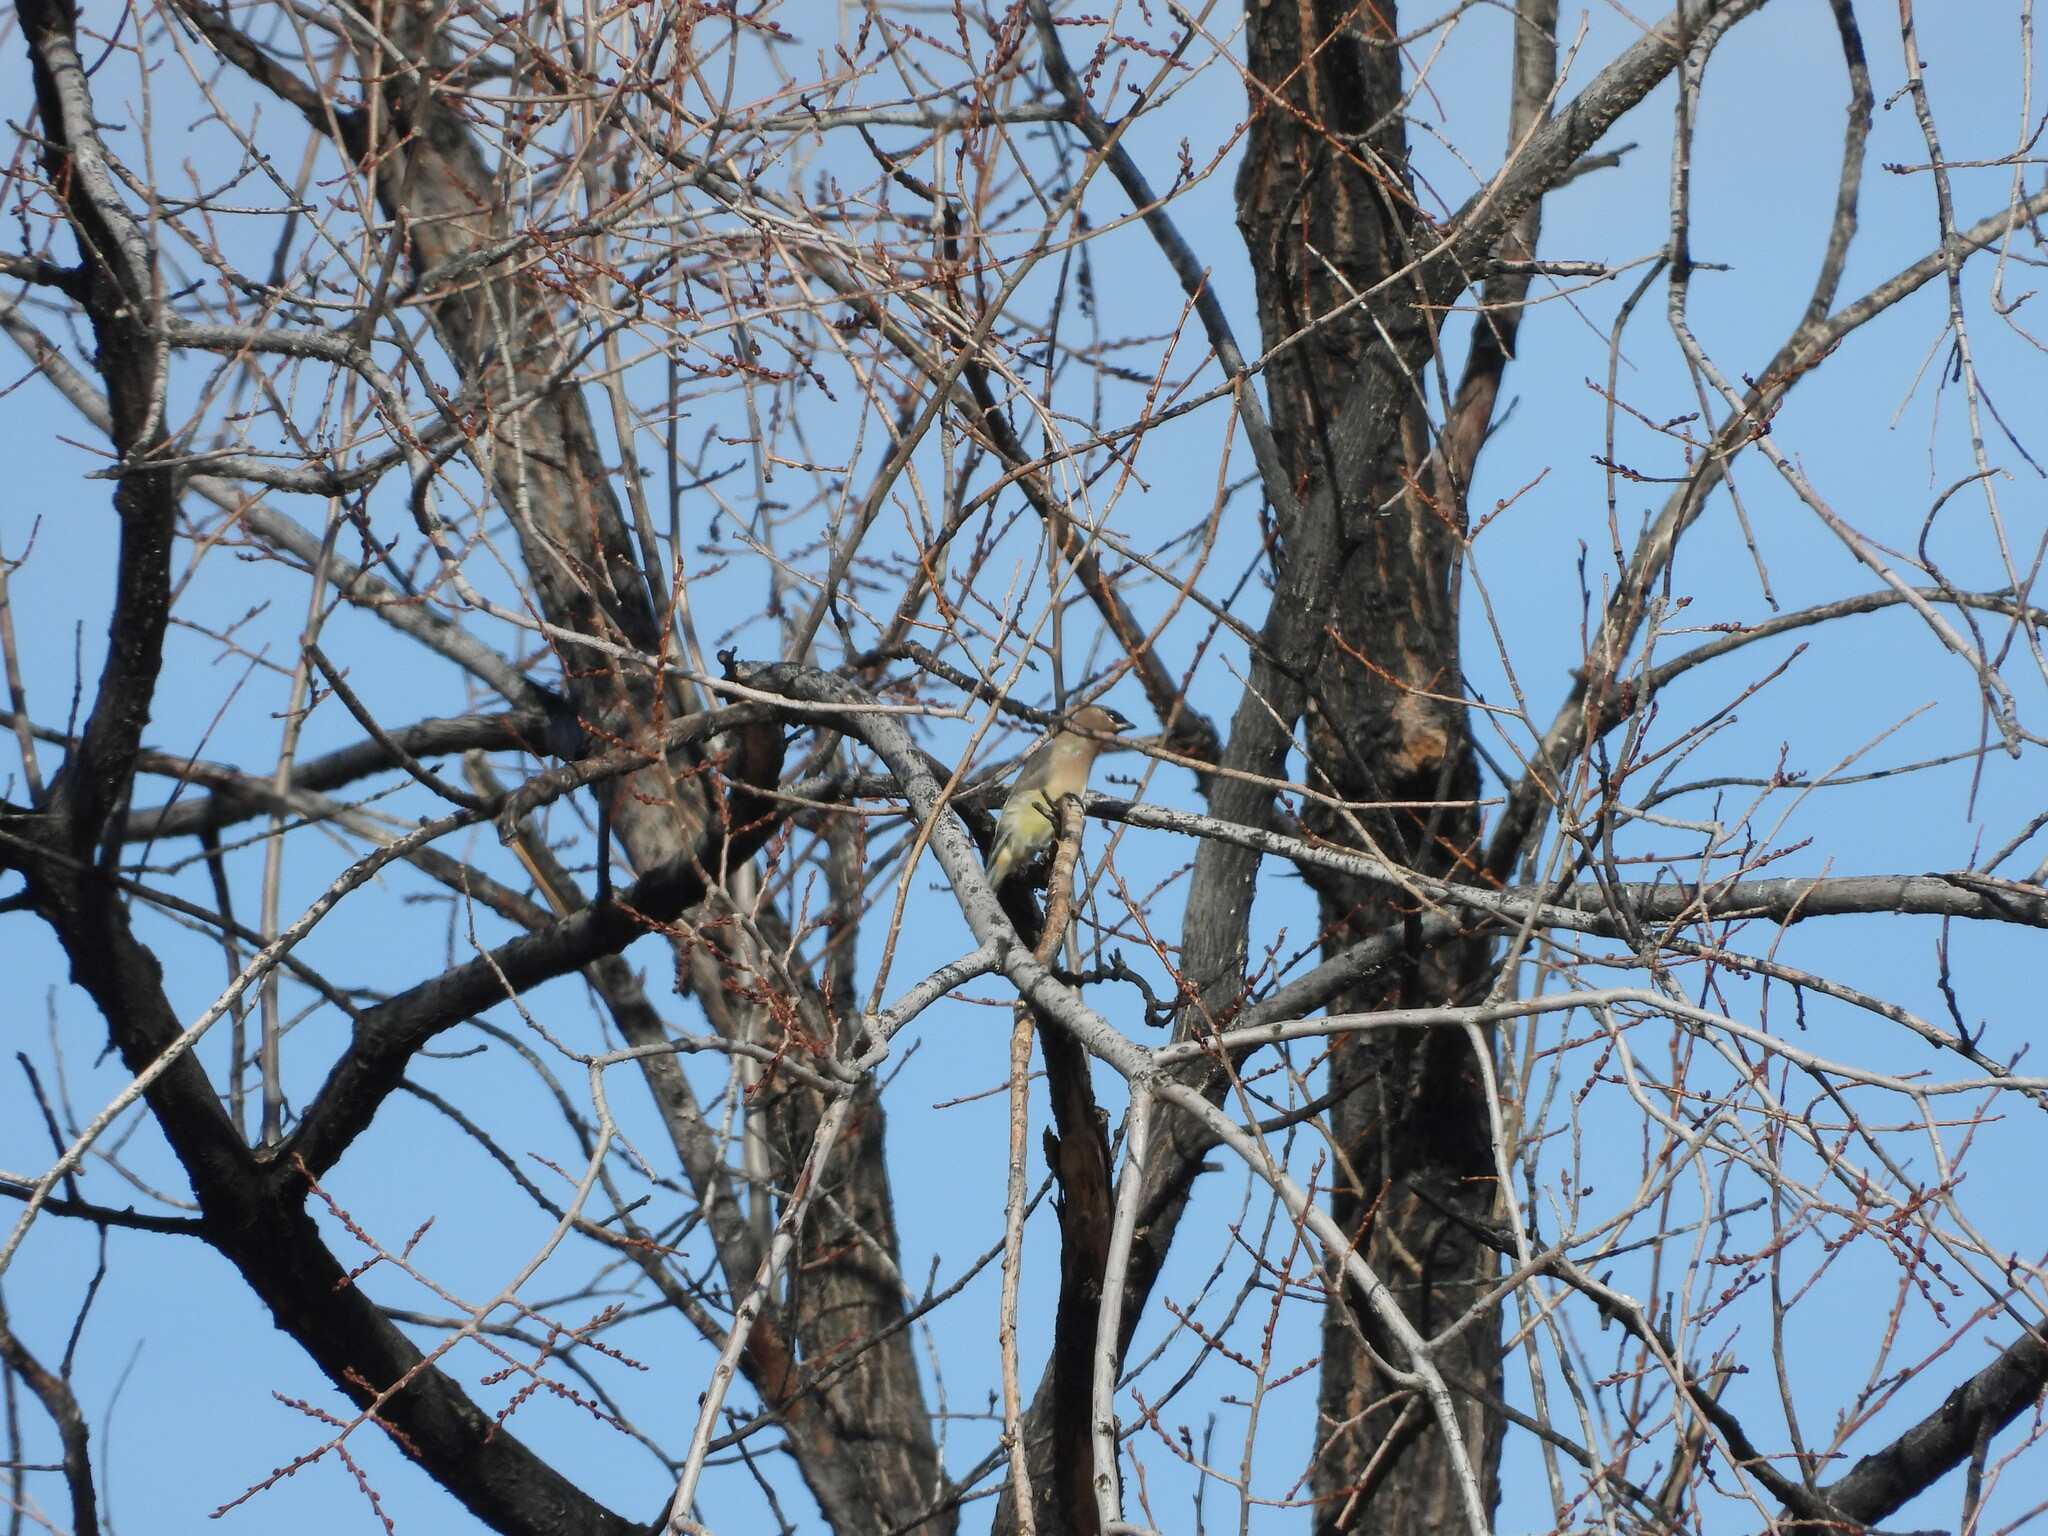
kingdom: Animalia
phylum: Chordata
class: Aves
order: Passeriformes
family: Bombycillidae
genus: Bombycilla
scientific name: Bombycilla cedrorum
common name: Cedar waxwing
